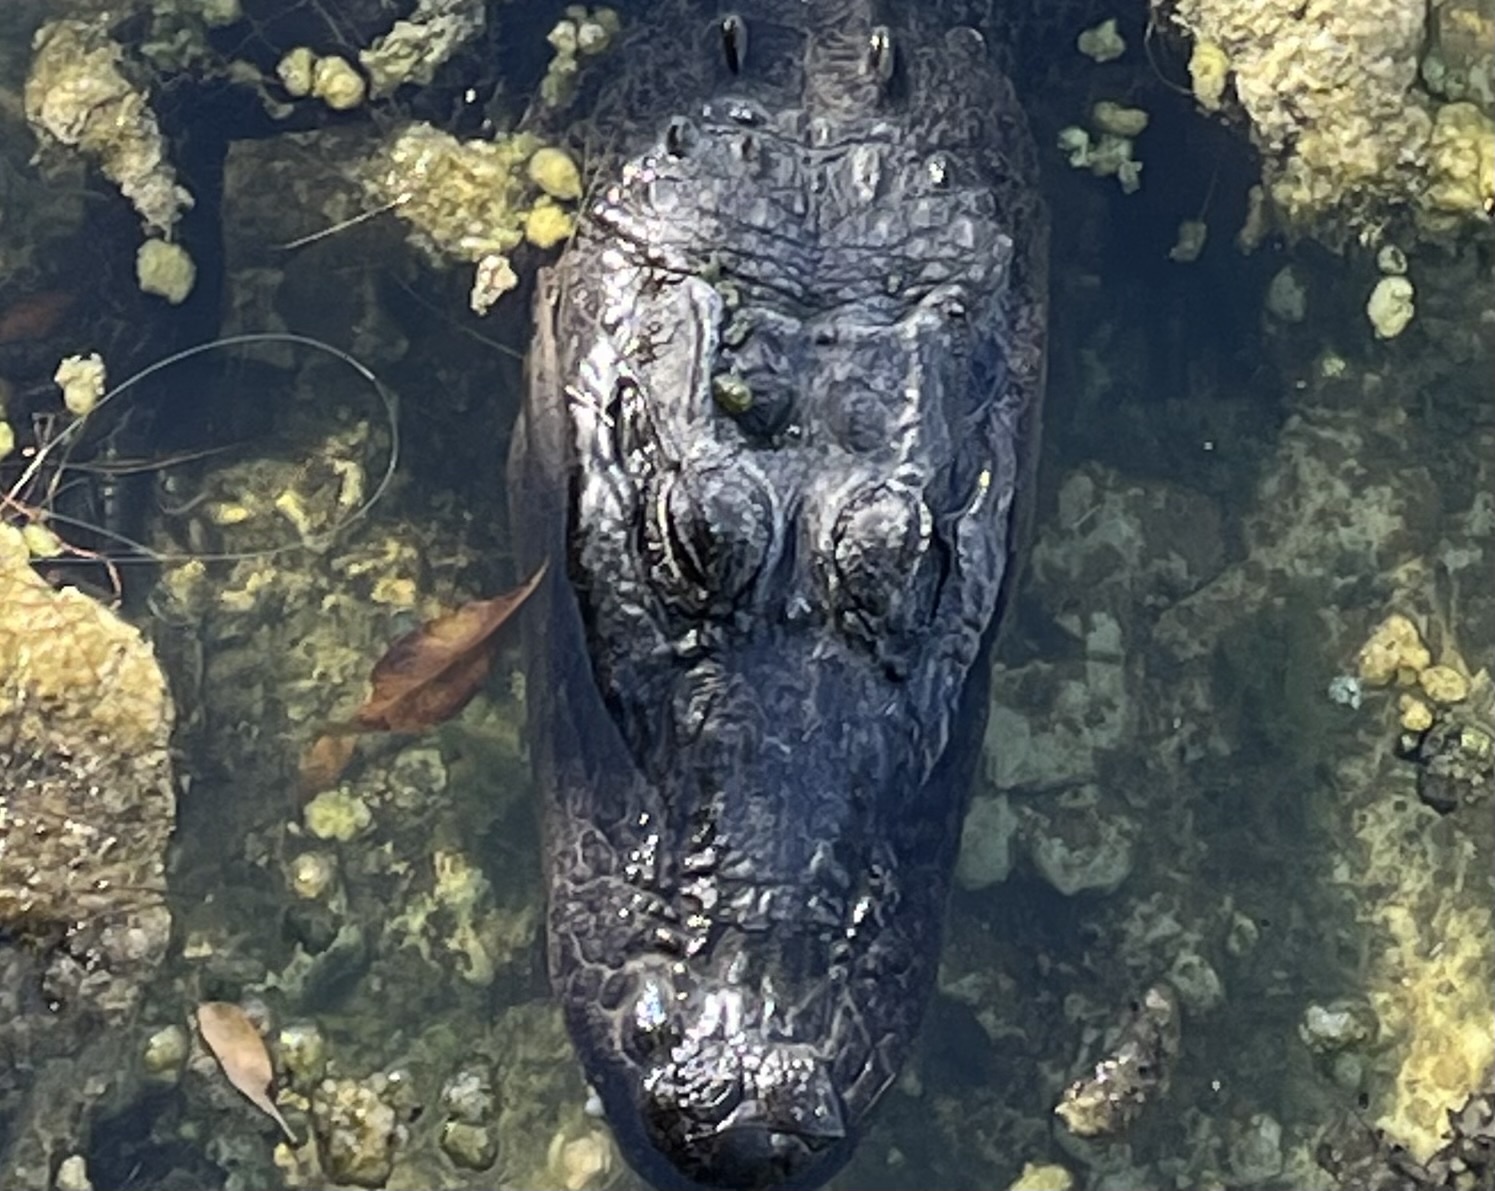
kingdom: Animalia
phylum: Chordata
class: Crocodylia
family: Alligatoridae
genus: Alligator
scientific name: Alligator mississippiensis
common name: American alligator
